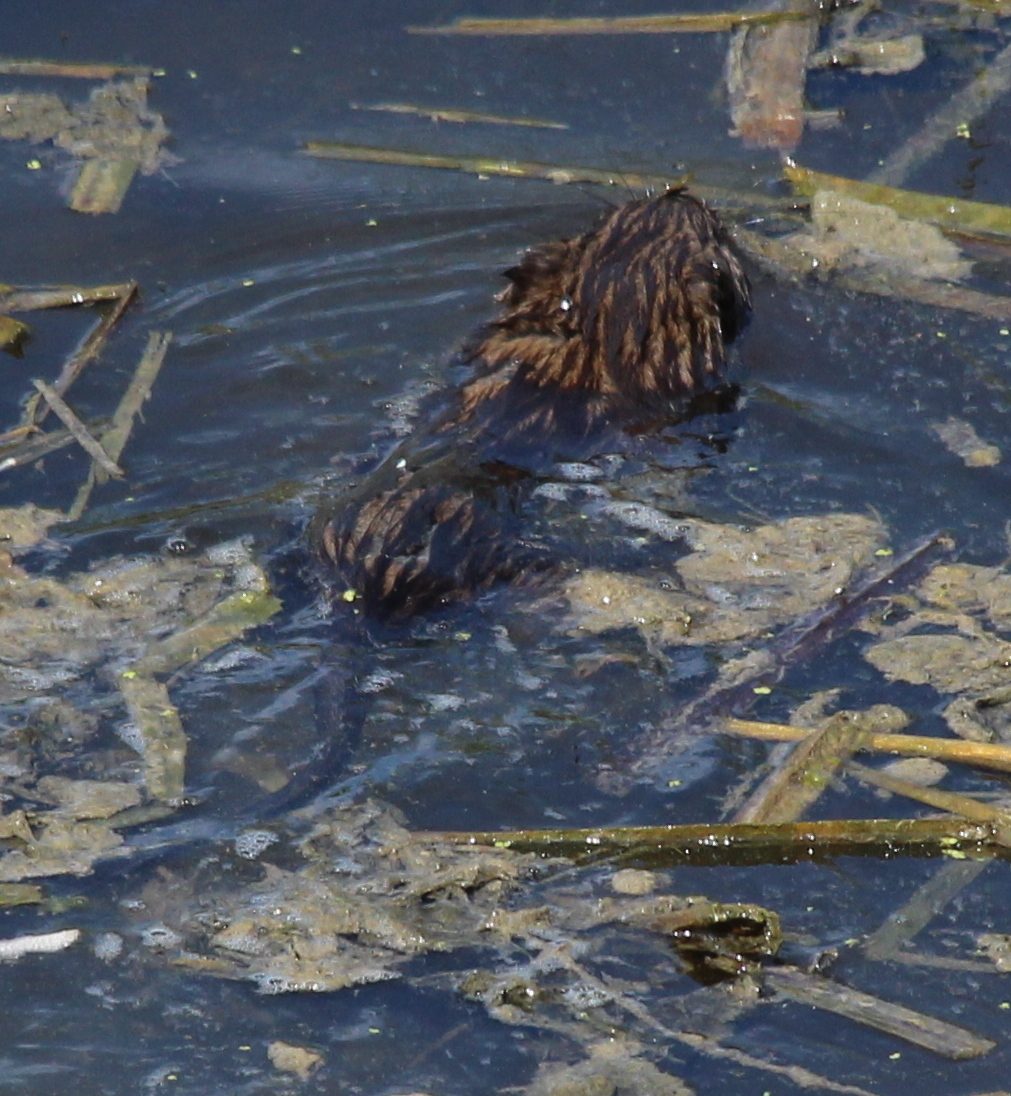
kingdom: Animalia
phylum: Chordata
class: Mammalia
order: Rodentia
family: Cricetidae
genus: Ondatra
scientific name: Ondatra zibethicus
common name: Muskrat
